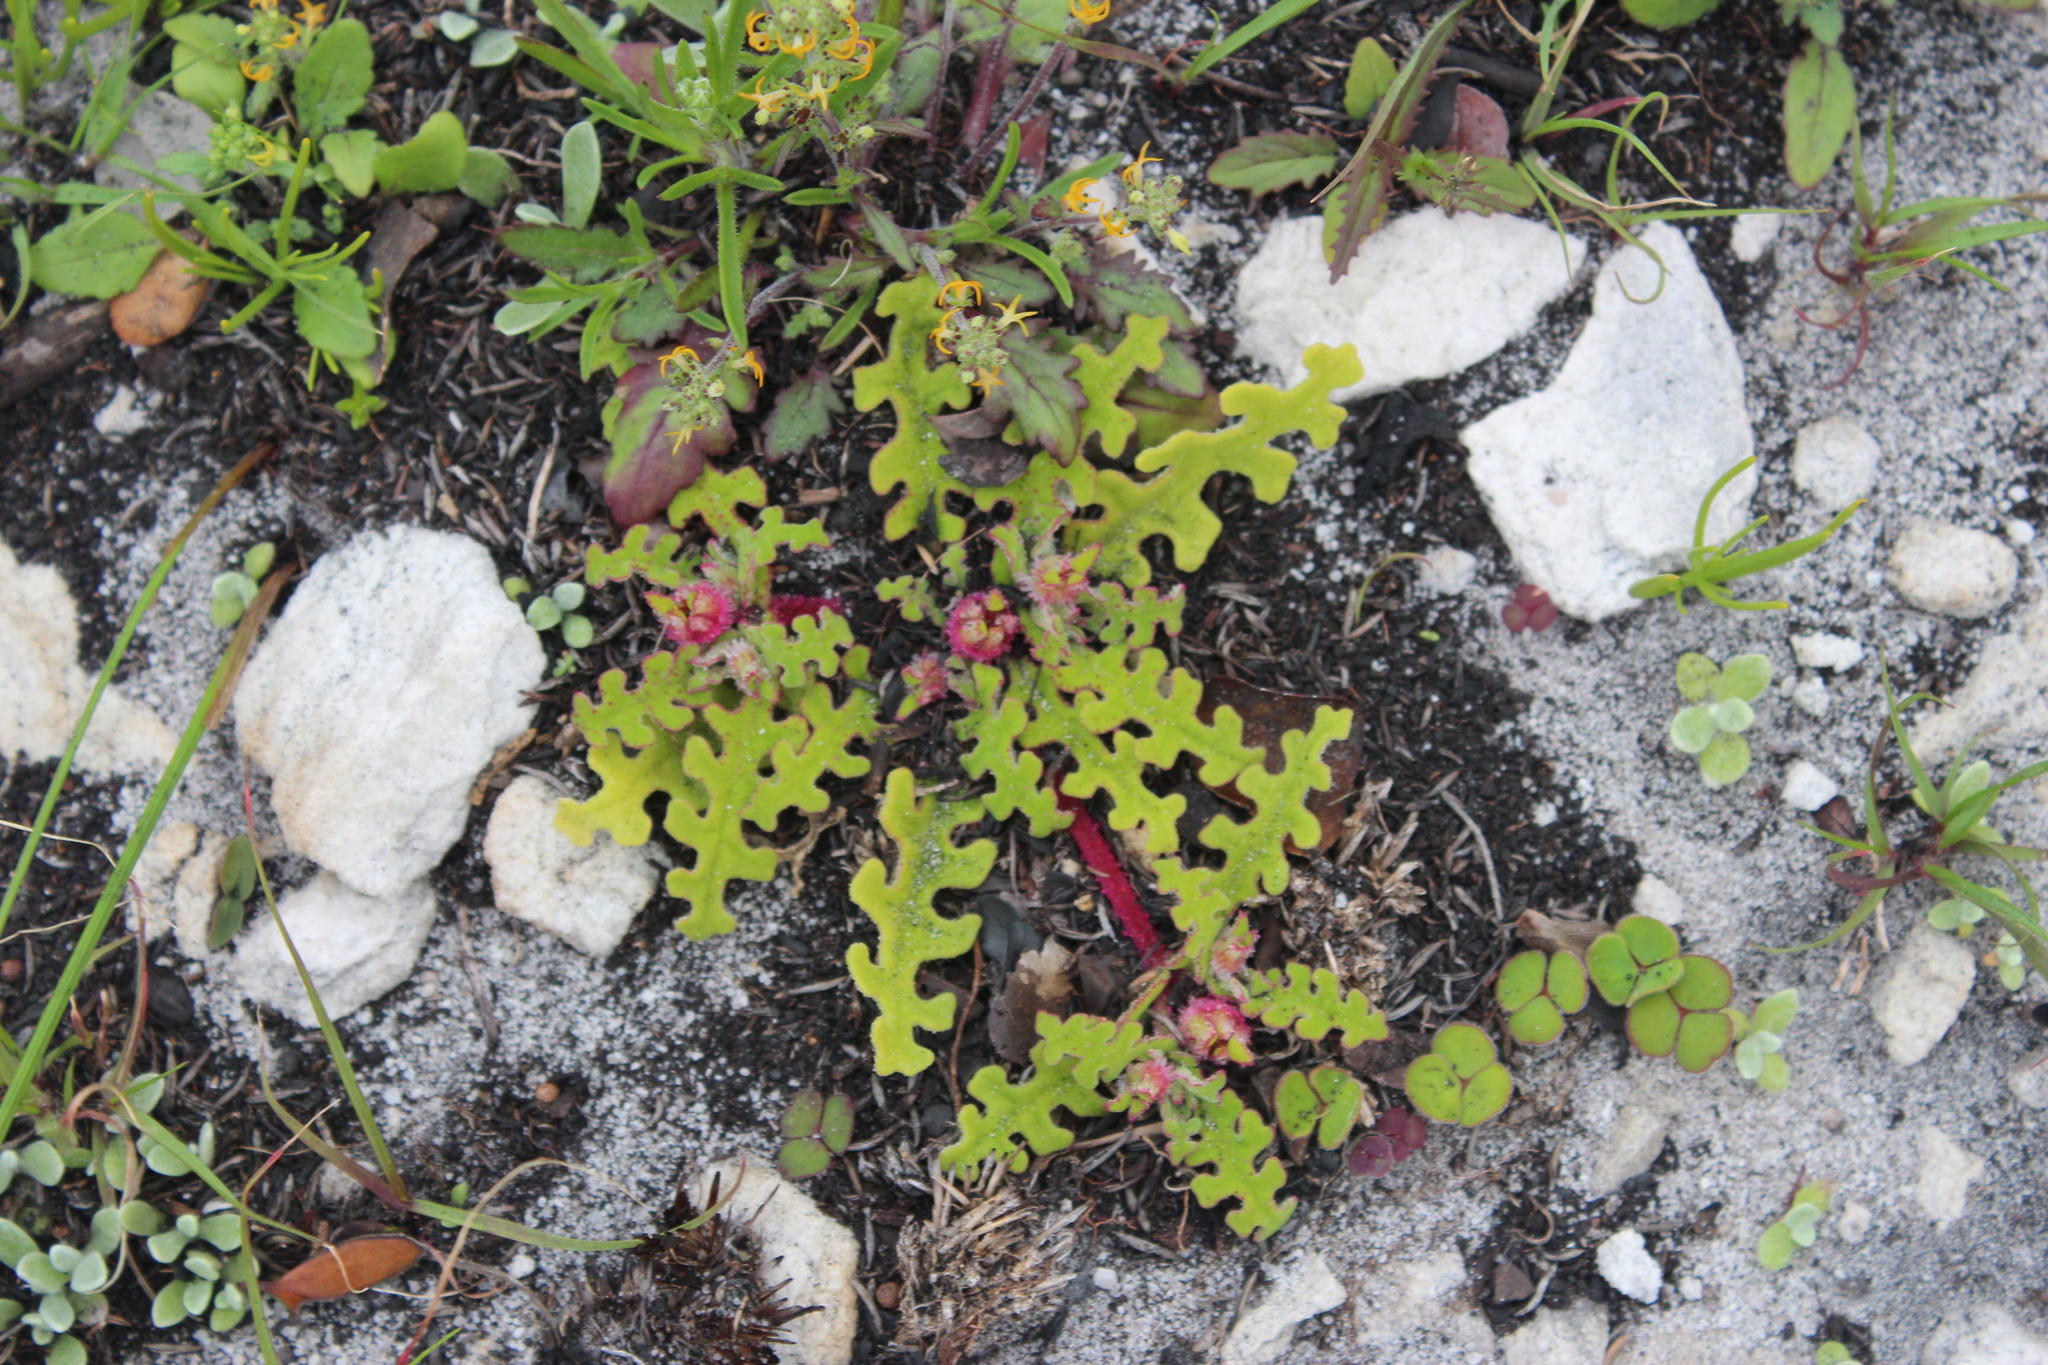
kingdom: Plantae
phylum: Tracheophyta
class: Magnoliopsida
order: Caryophyllales
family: Aizoaceae
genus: Cleretum
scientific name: Cleretum herrei
